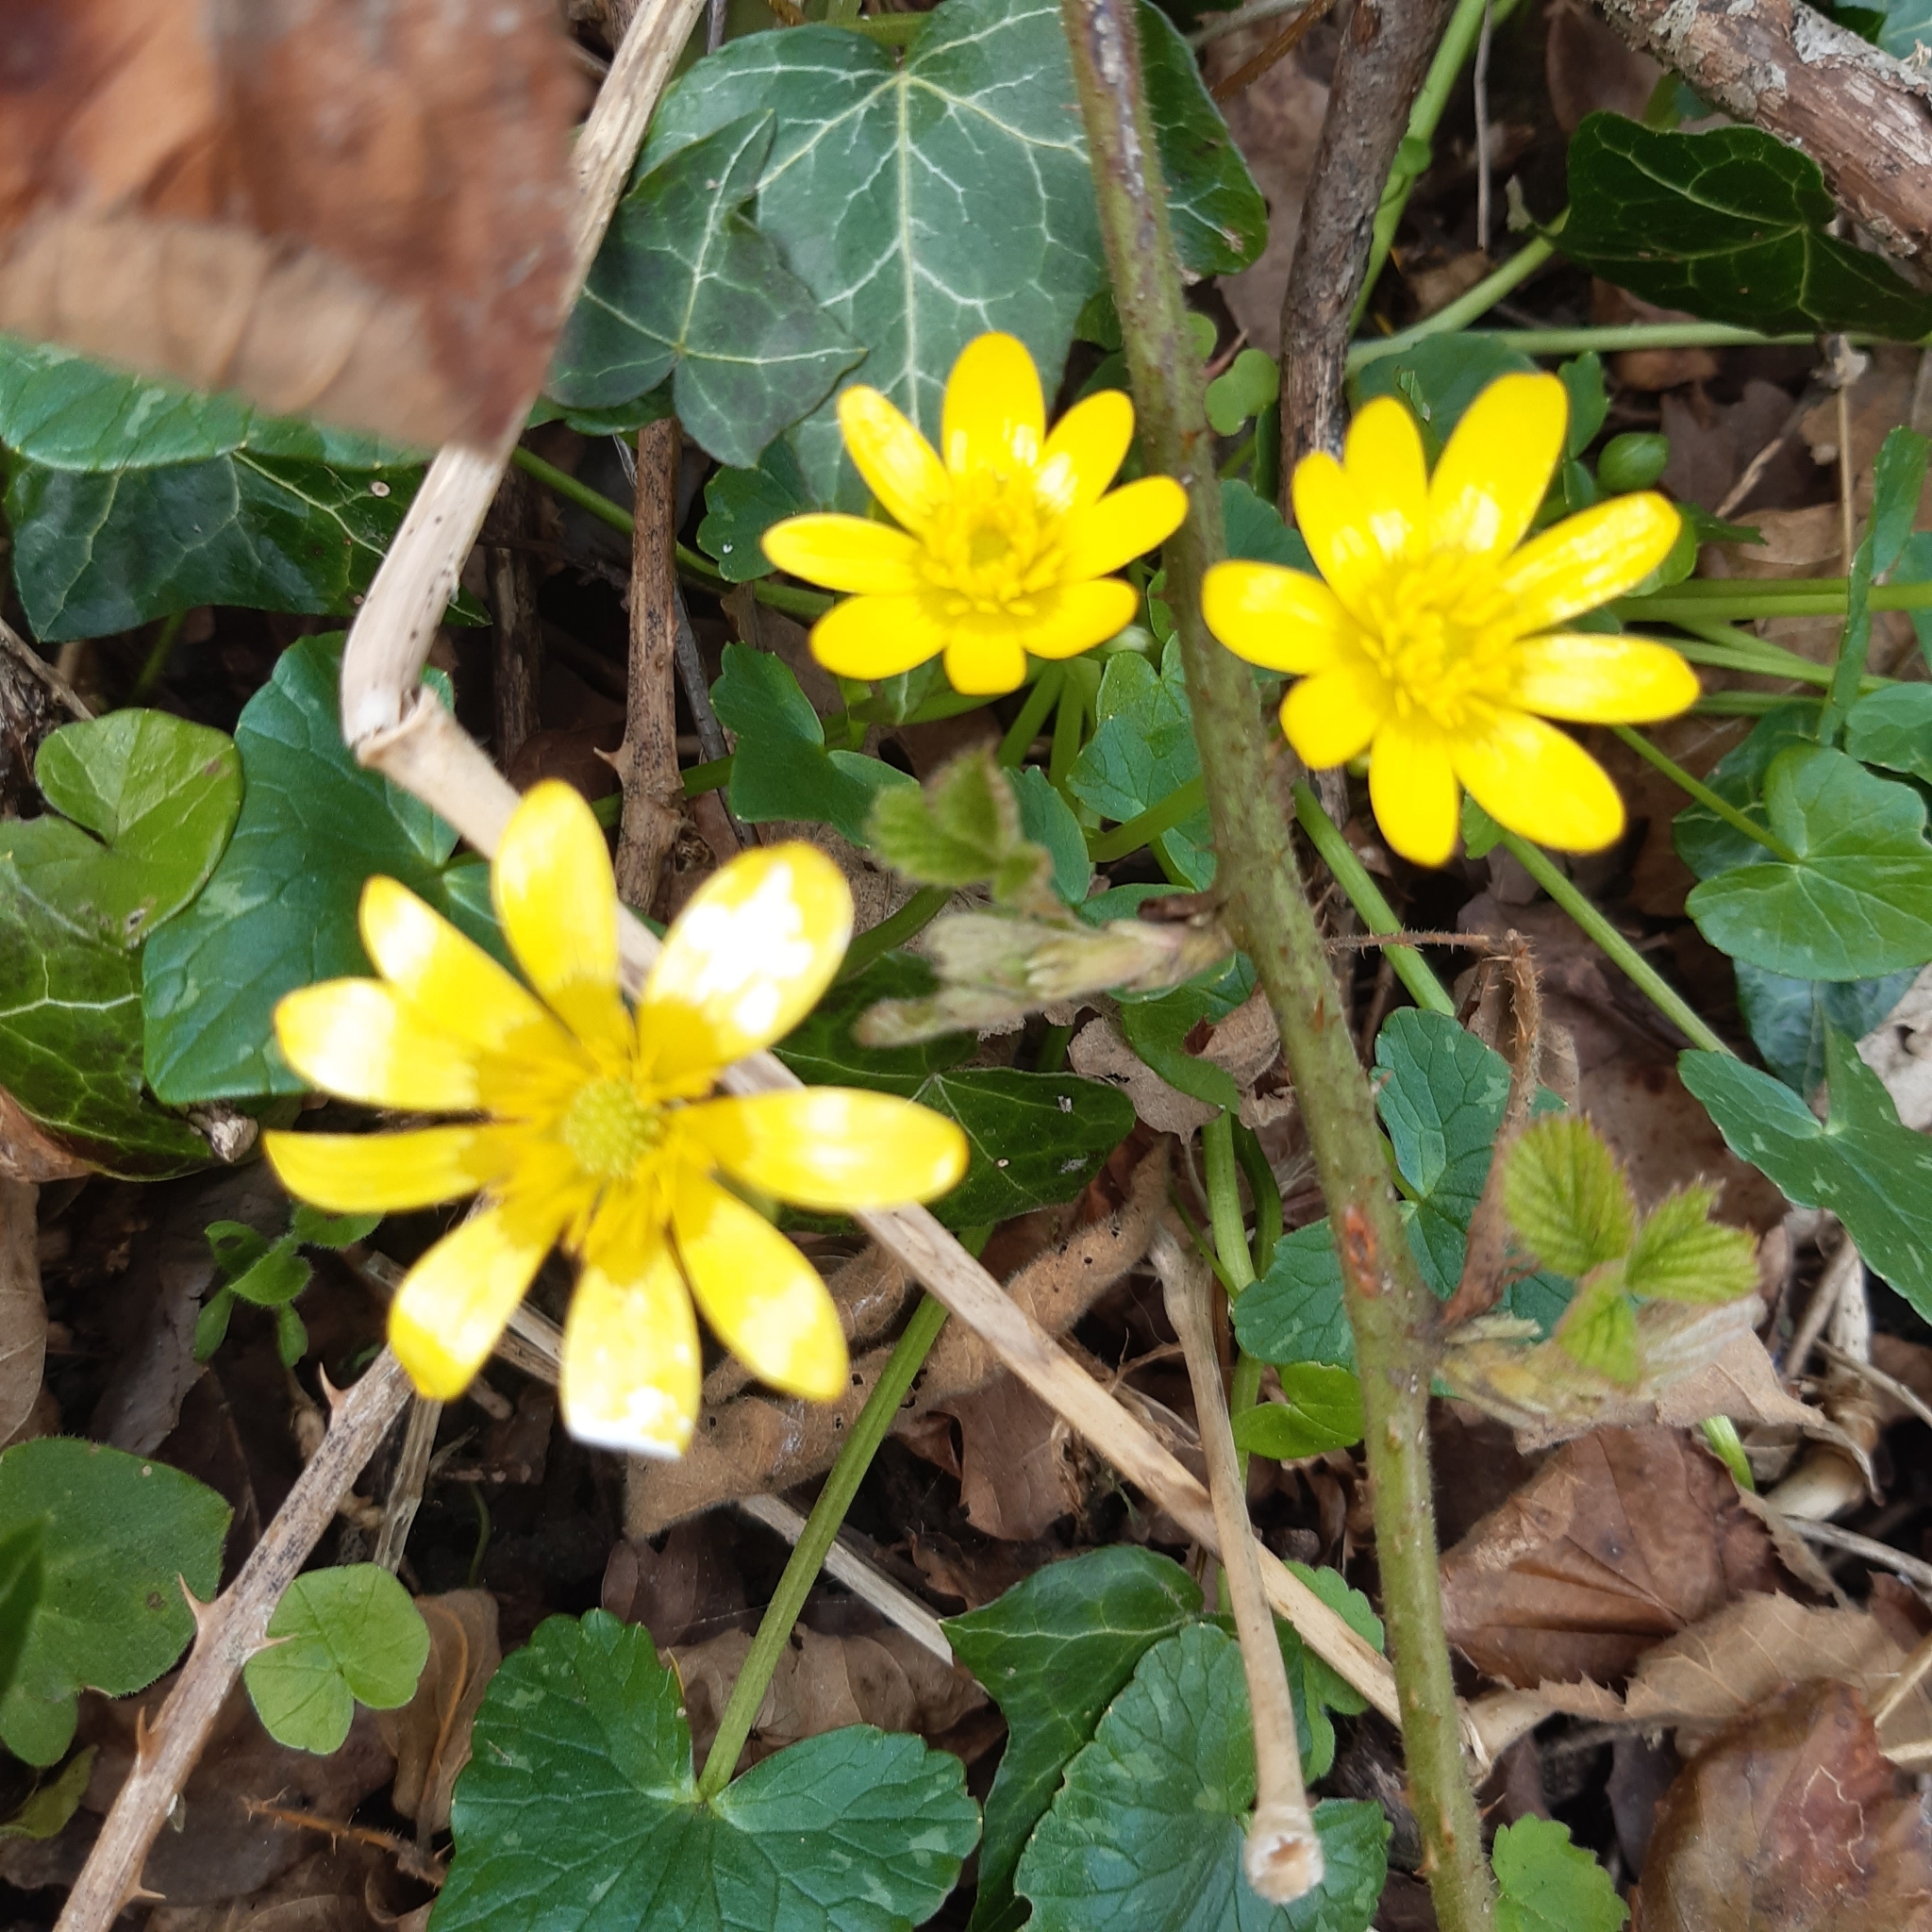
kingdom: Plantae
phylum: Tracheophyta
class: Magnoliopsida
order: Ranunculales
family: Ranunculaceae
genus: Ficaria
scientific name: Ficaria verna
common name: Lesser celandine
